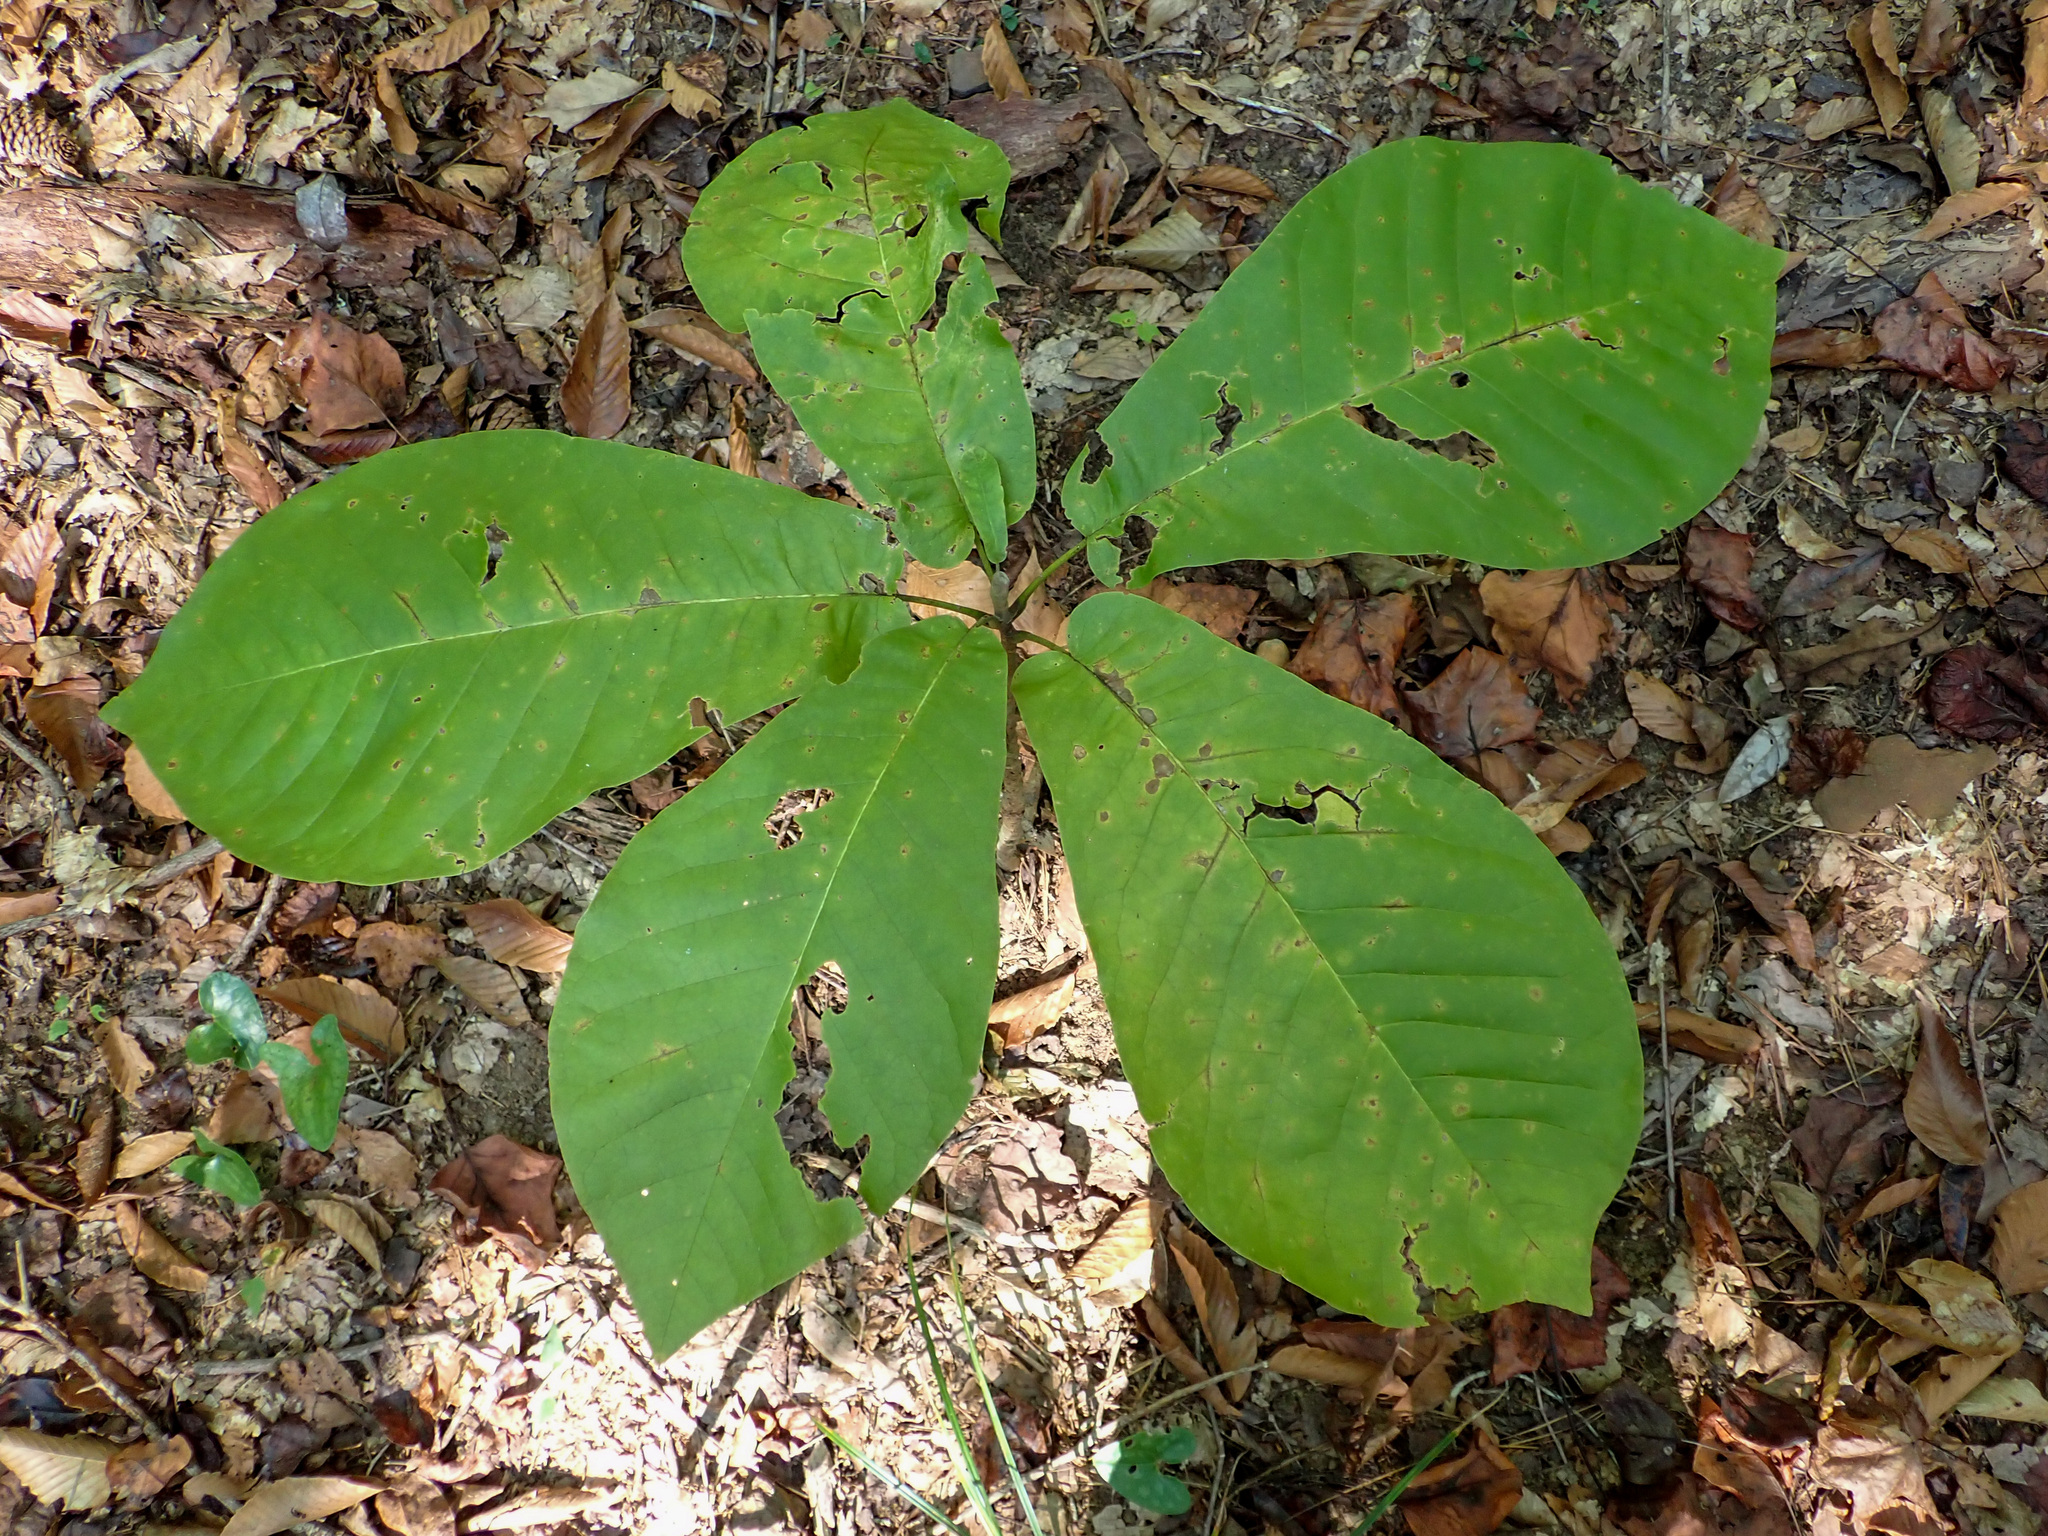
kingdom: Plantae
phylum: Tracheophyta
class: Magnoliopsida
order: Magnoliales
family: Magnoliaceae
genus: Magnolia
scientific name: Magnolia macrophylla
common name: Big-leaf magnolia
